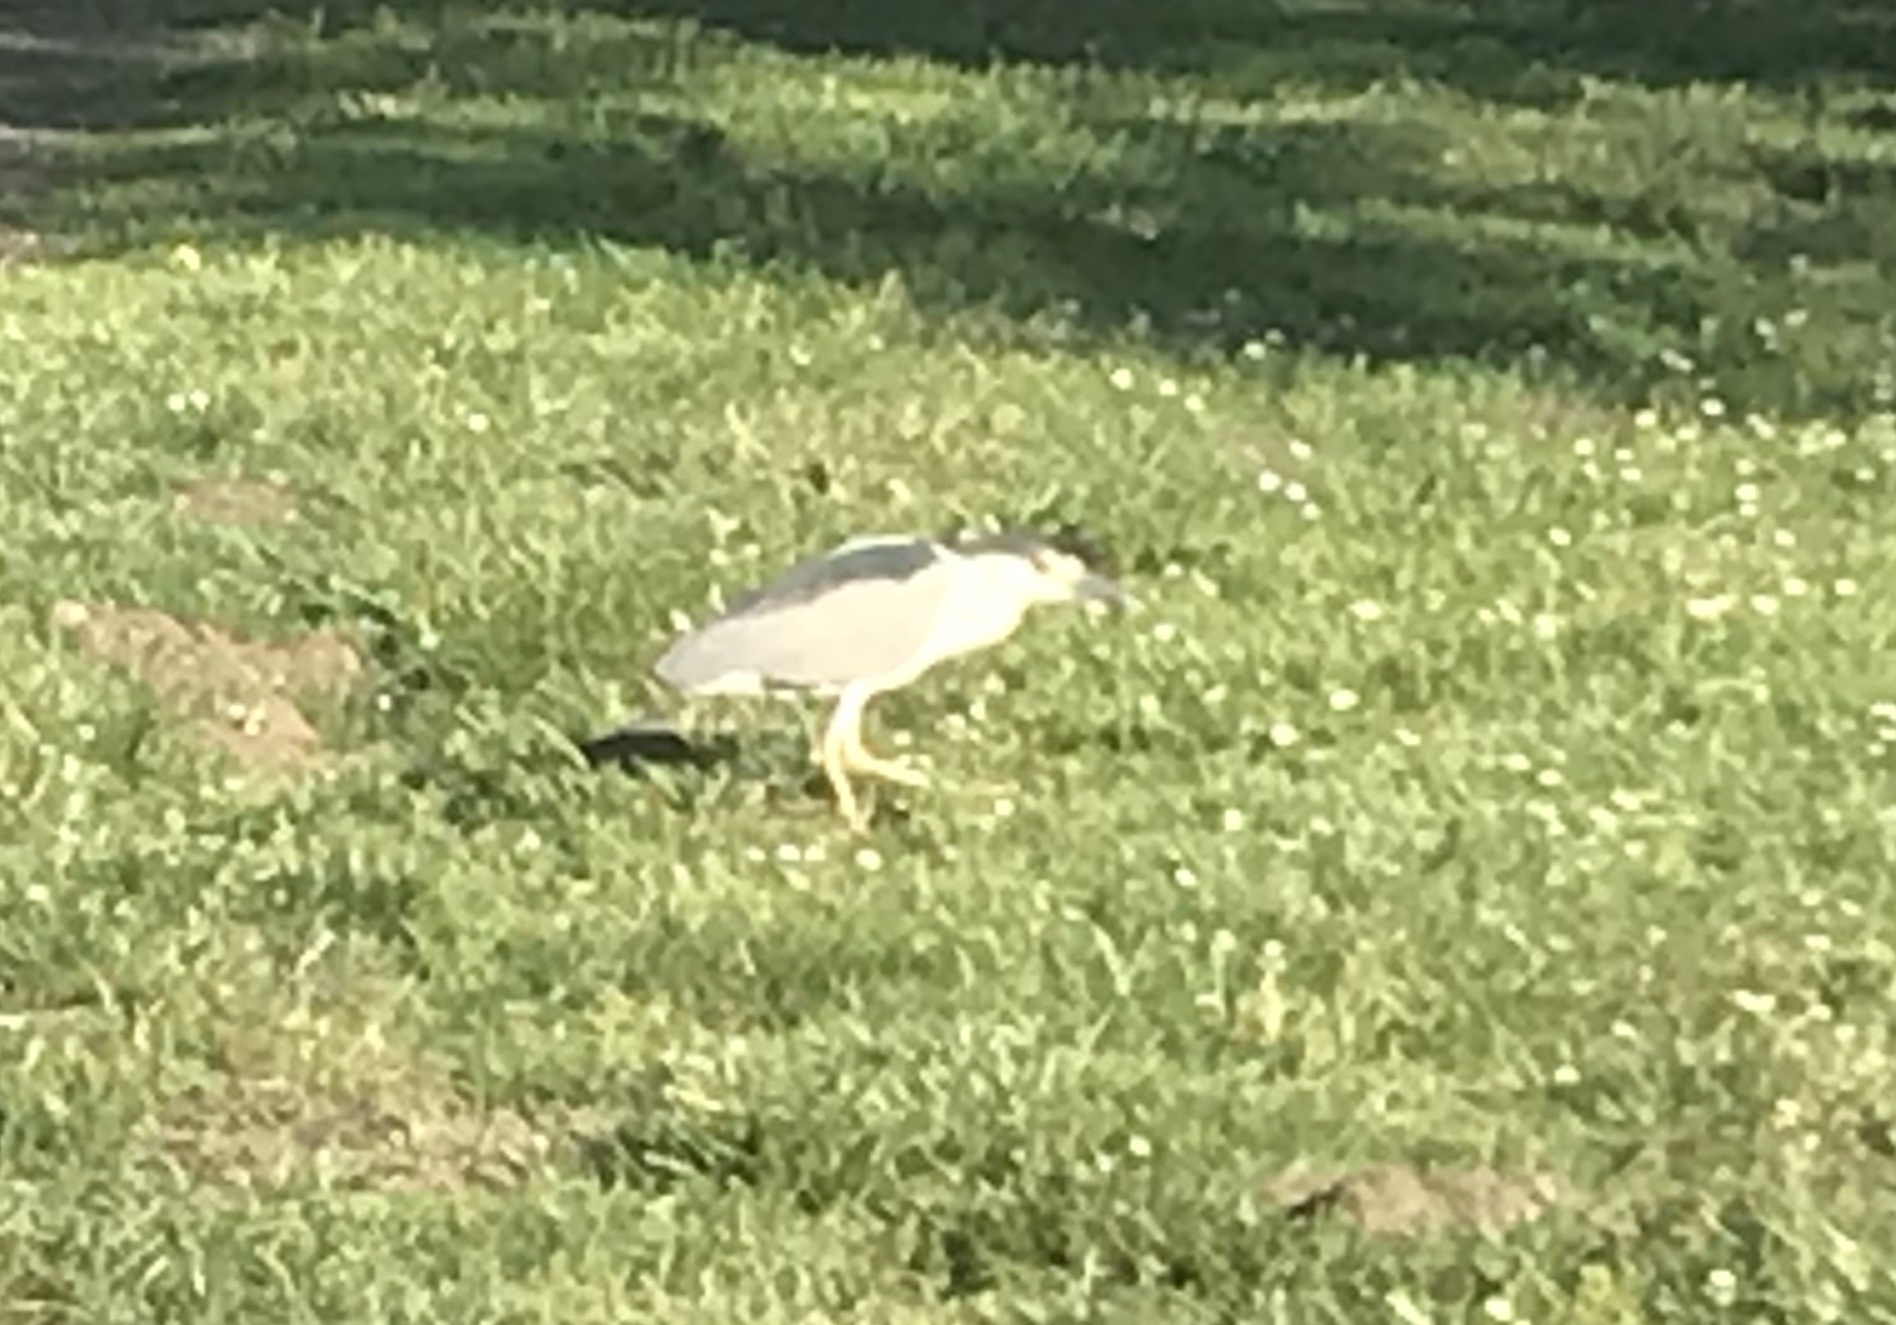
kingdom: Animalia
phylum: Chordata
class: Aves
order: Pelecaniformes
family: Ardeidae
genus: Nycticorax
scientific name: Nycticorax nycticorax
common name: Black-crowned night heron
